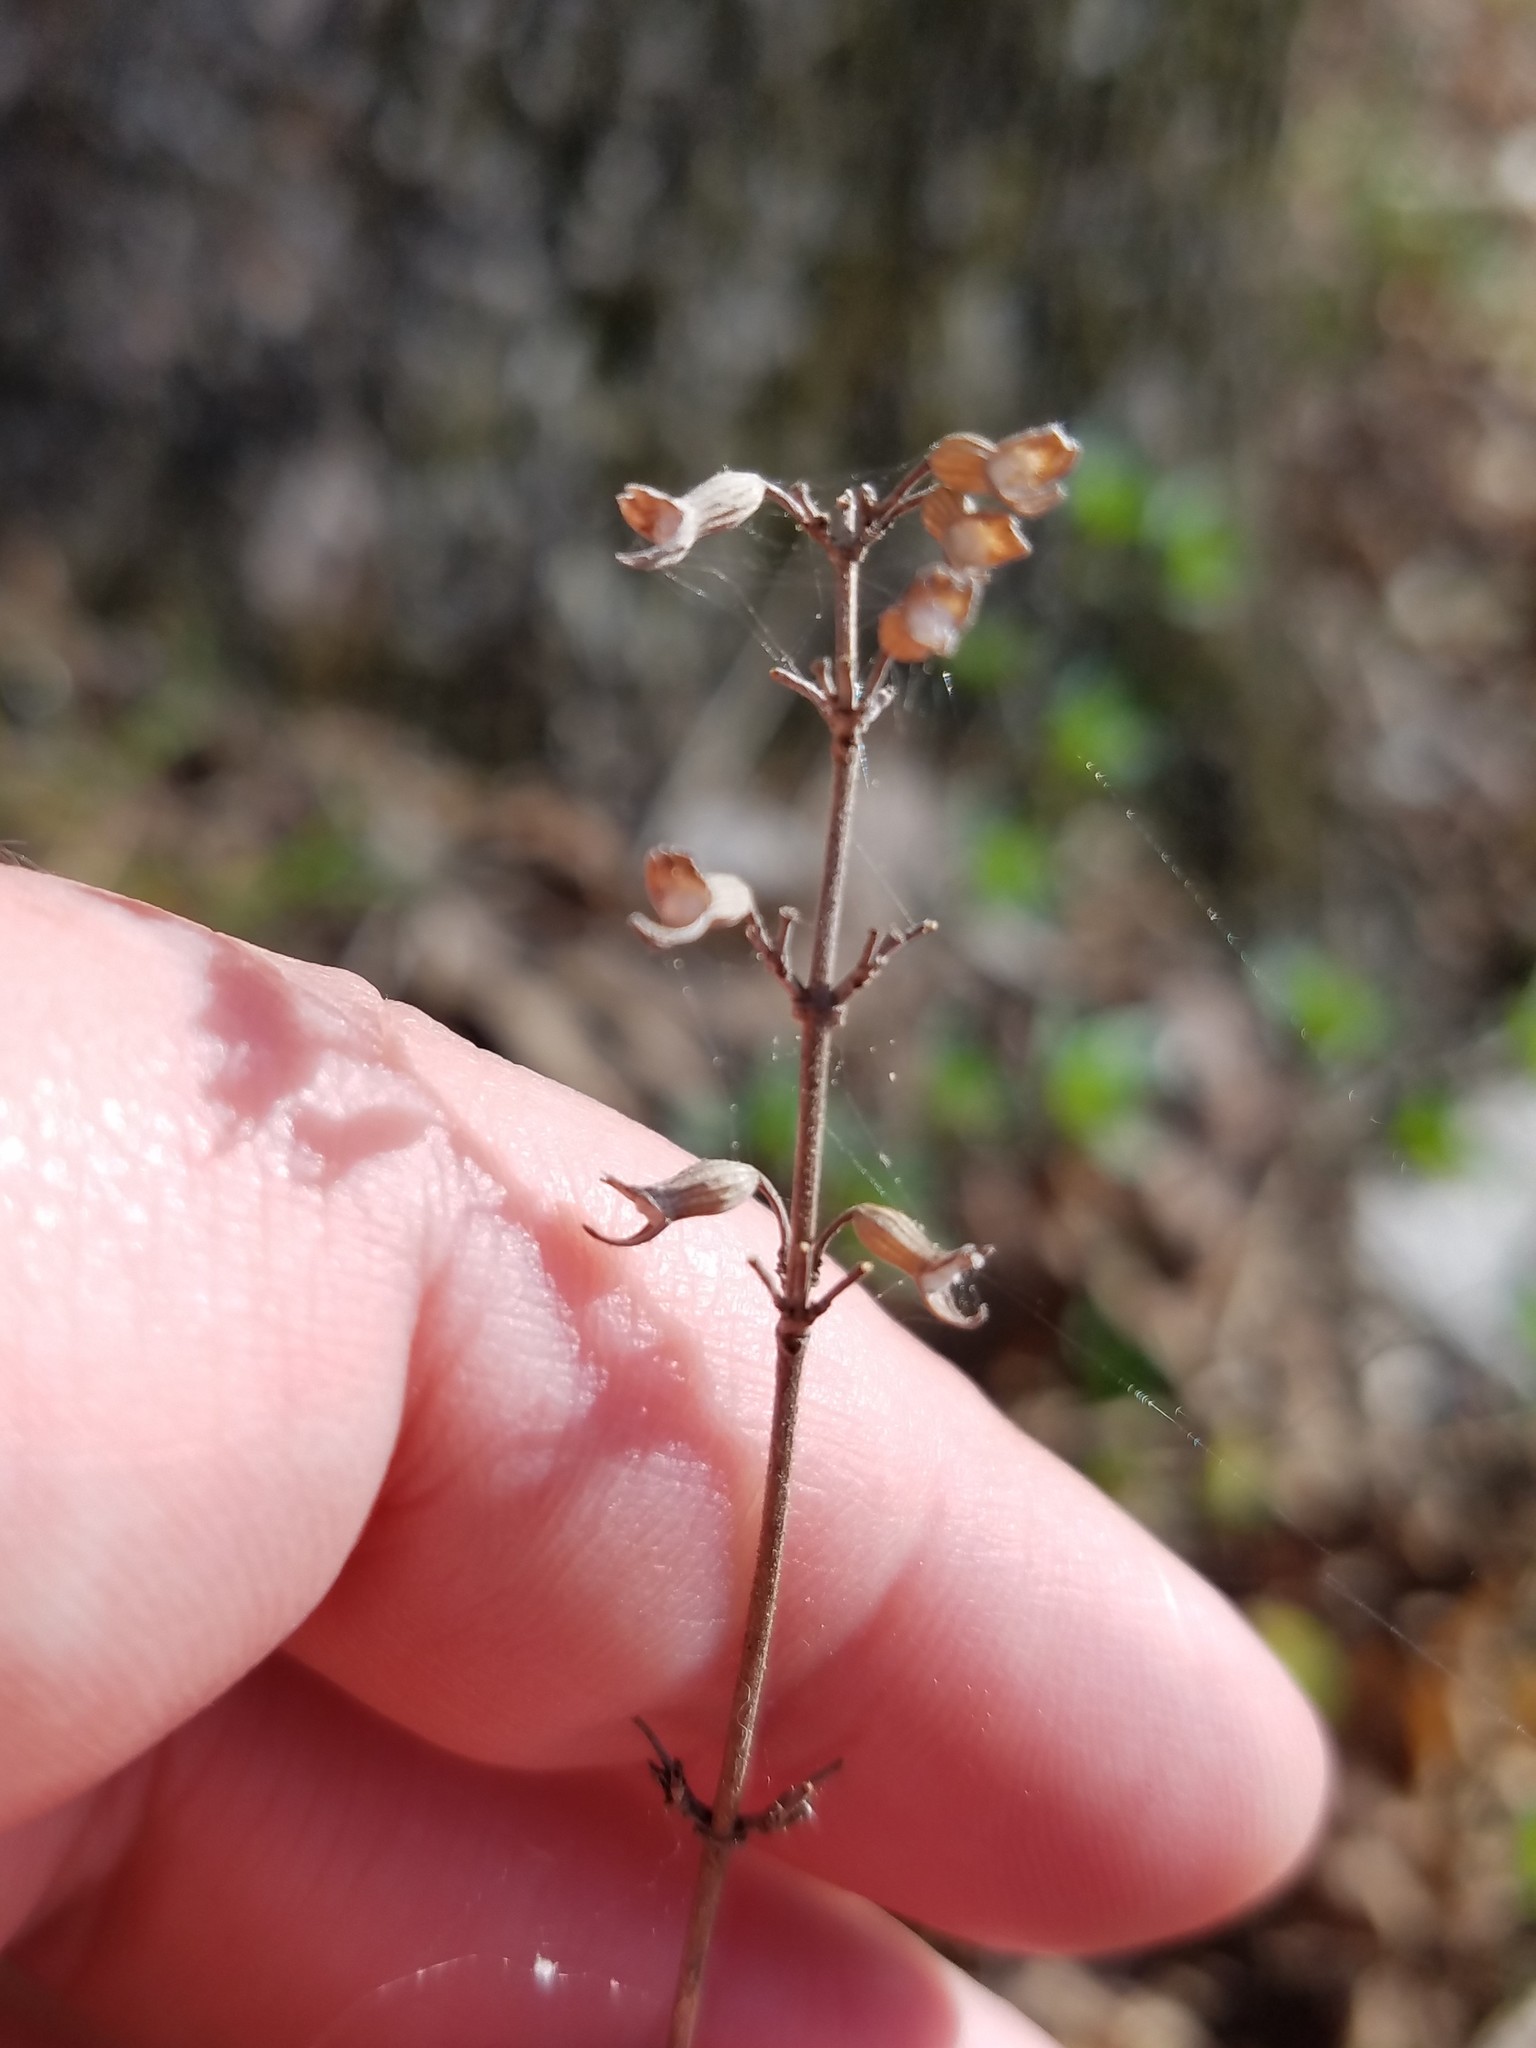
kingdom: Plantae
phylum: Tracheophyta
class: Magnoliopsida
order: Lamiales
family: Lamiaceae
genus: Clinopodium
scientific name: Clinopodium carolinianum
